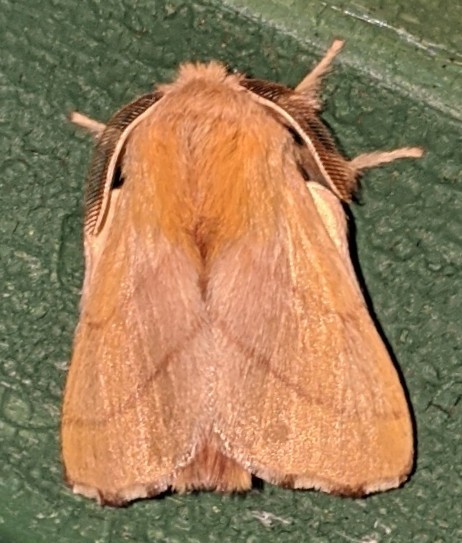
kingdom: Animalia
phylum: Arthropoda
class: Insecta
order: Lepidoptera
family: Lasiocampidae
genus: Malacosoma
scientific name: Malacosoma disstria
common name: Forest tent caterpillar
